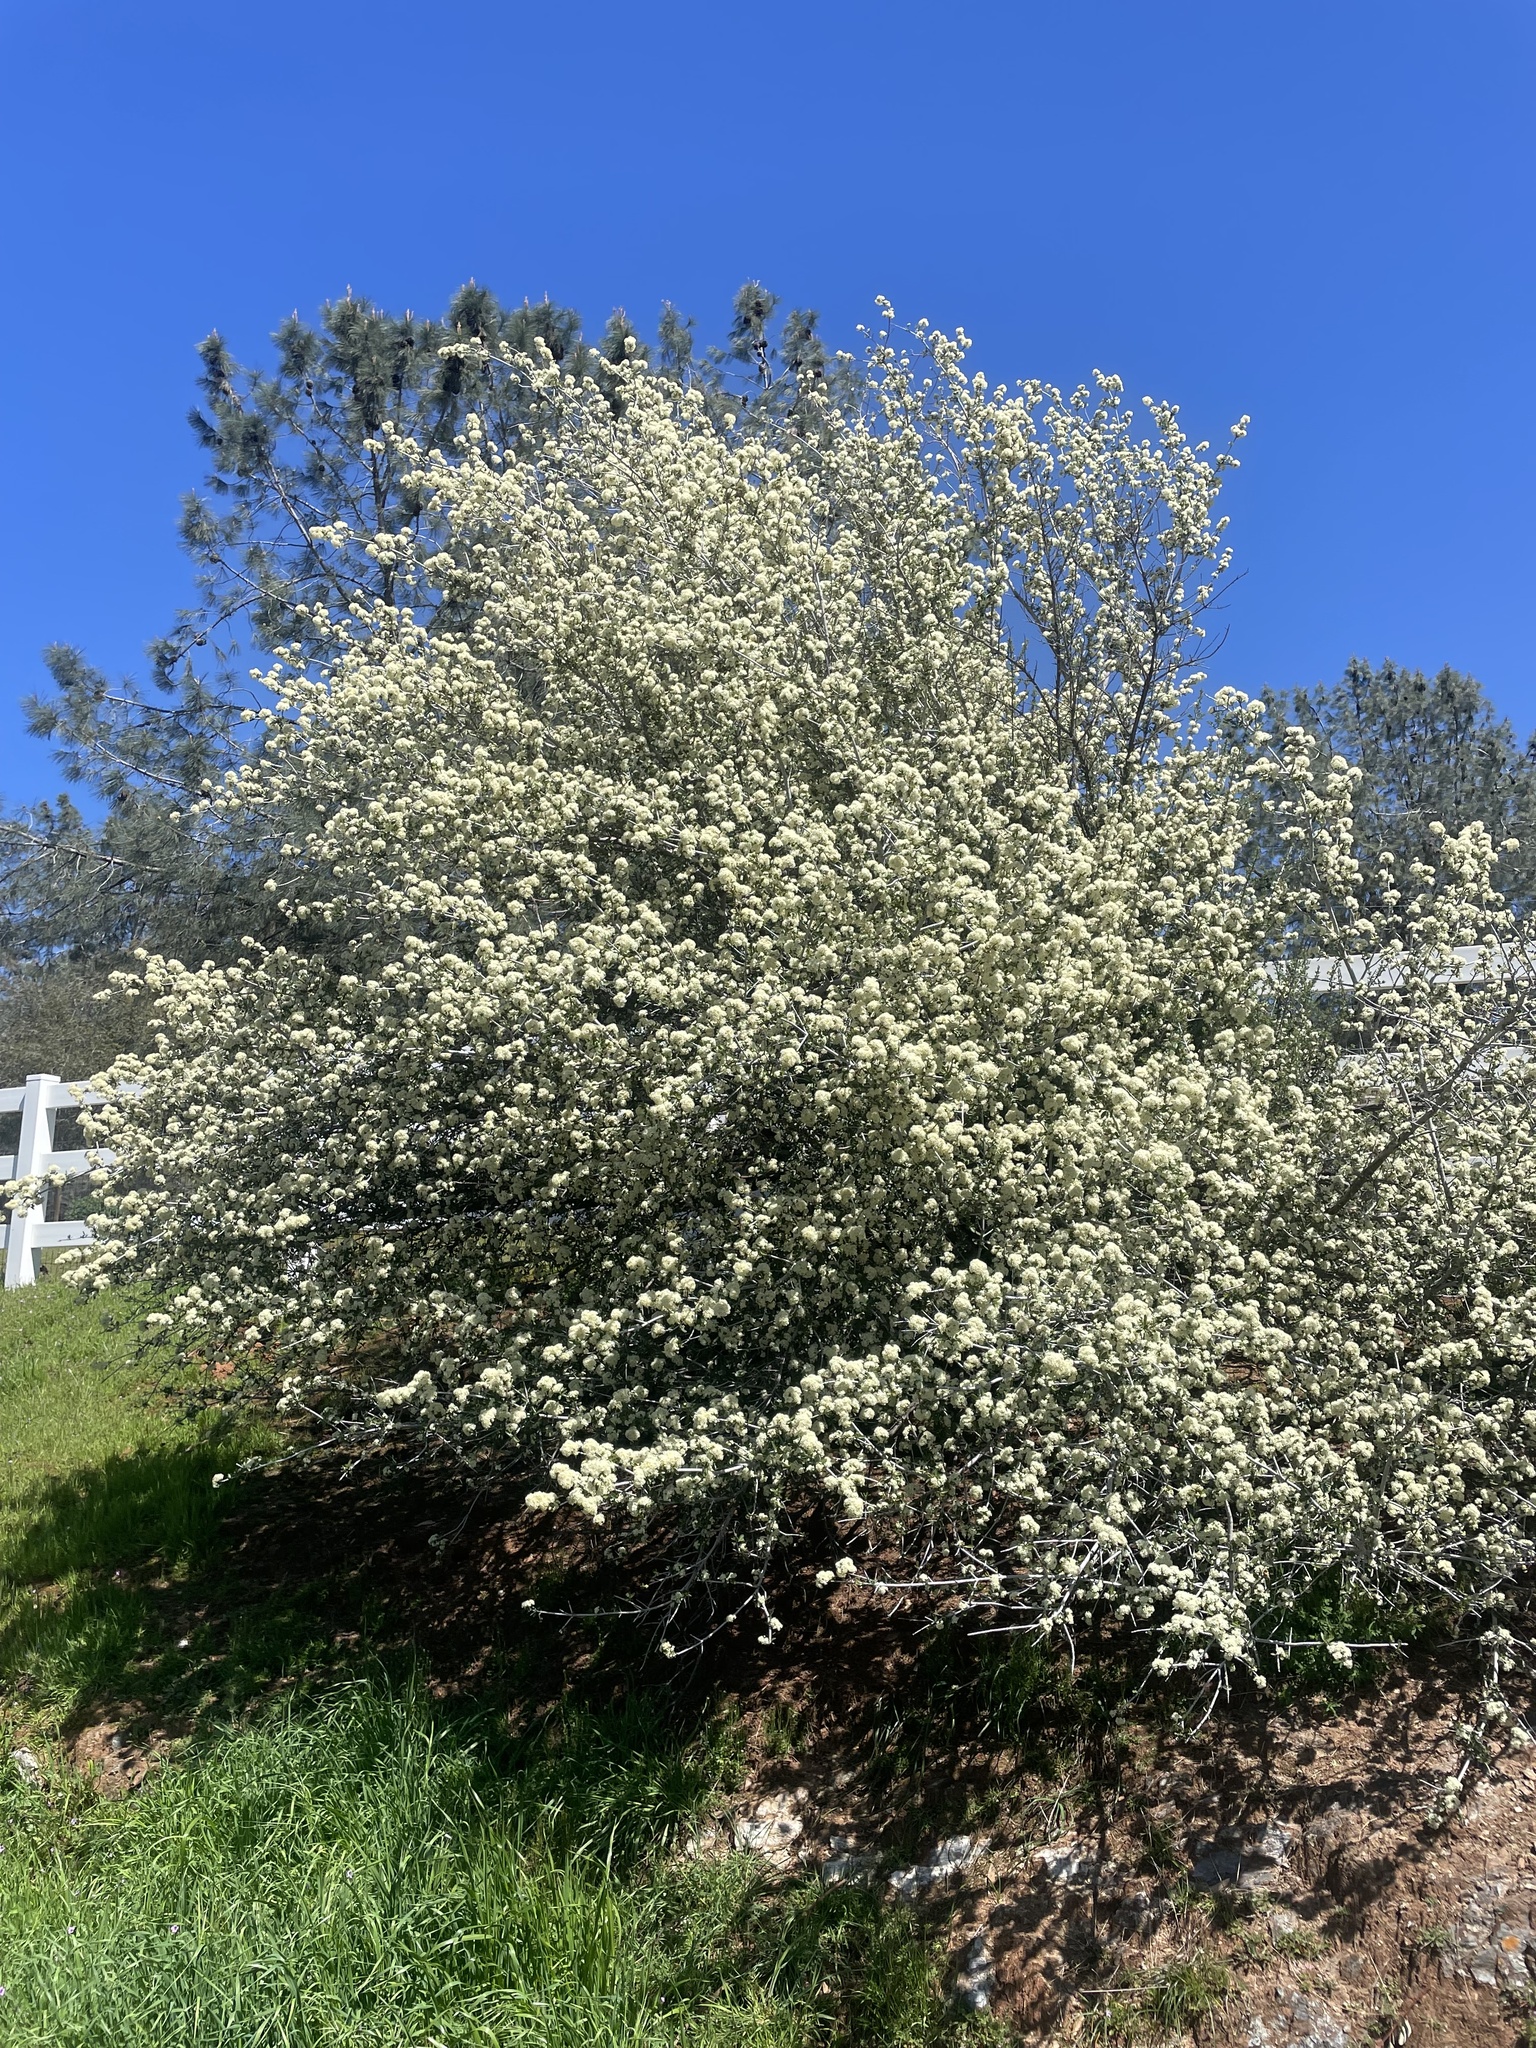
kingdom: Plantae
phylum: Tracheophyta
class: Magnoliopsida
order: Rosales
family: Rhamnaceae
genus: Ceanothus
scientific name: Ceanothus cuneatus
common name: Cuneate ceanothus
